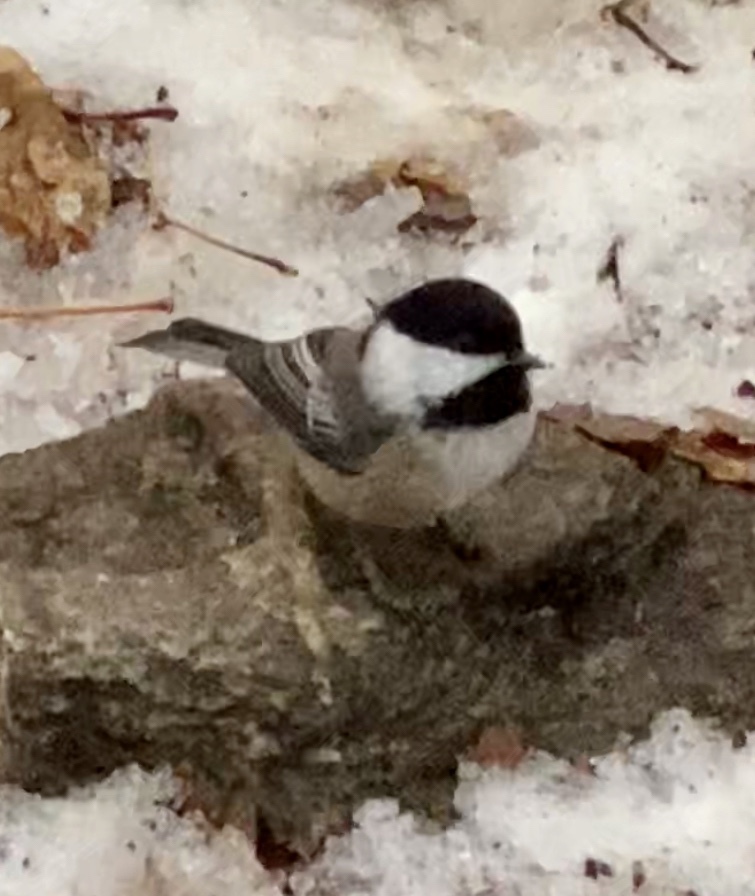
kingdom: Animalia
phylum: Chordata
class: Aves
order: Passeriformes
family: Paridae
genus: Poecile
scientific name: Poecile atricapillus
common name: Black-capped chickadee
